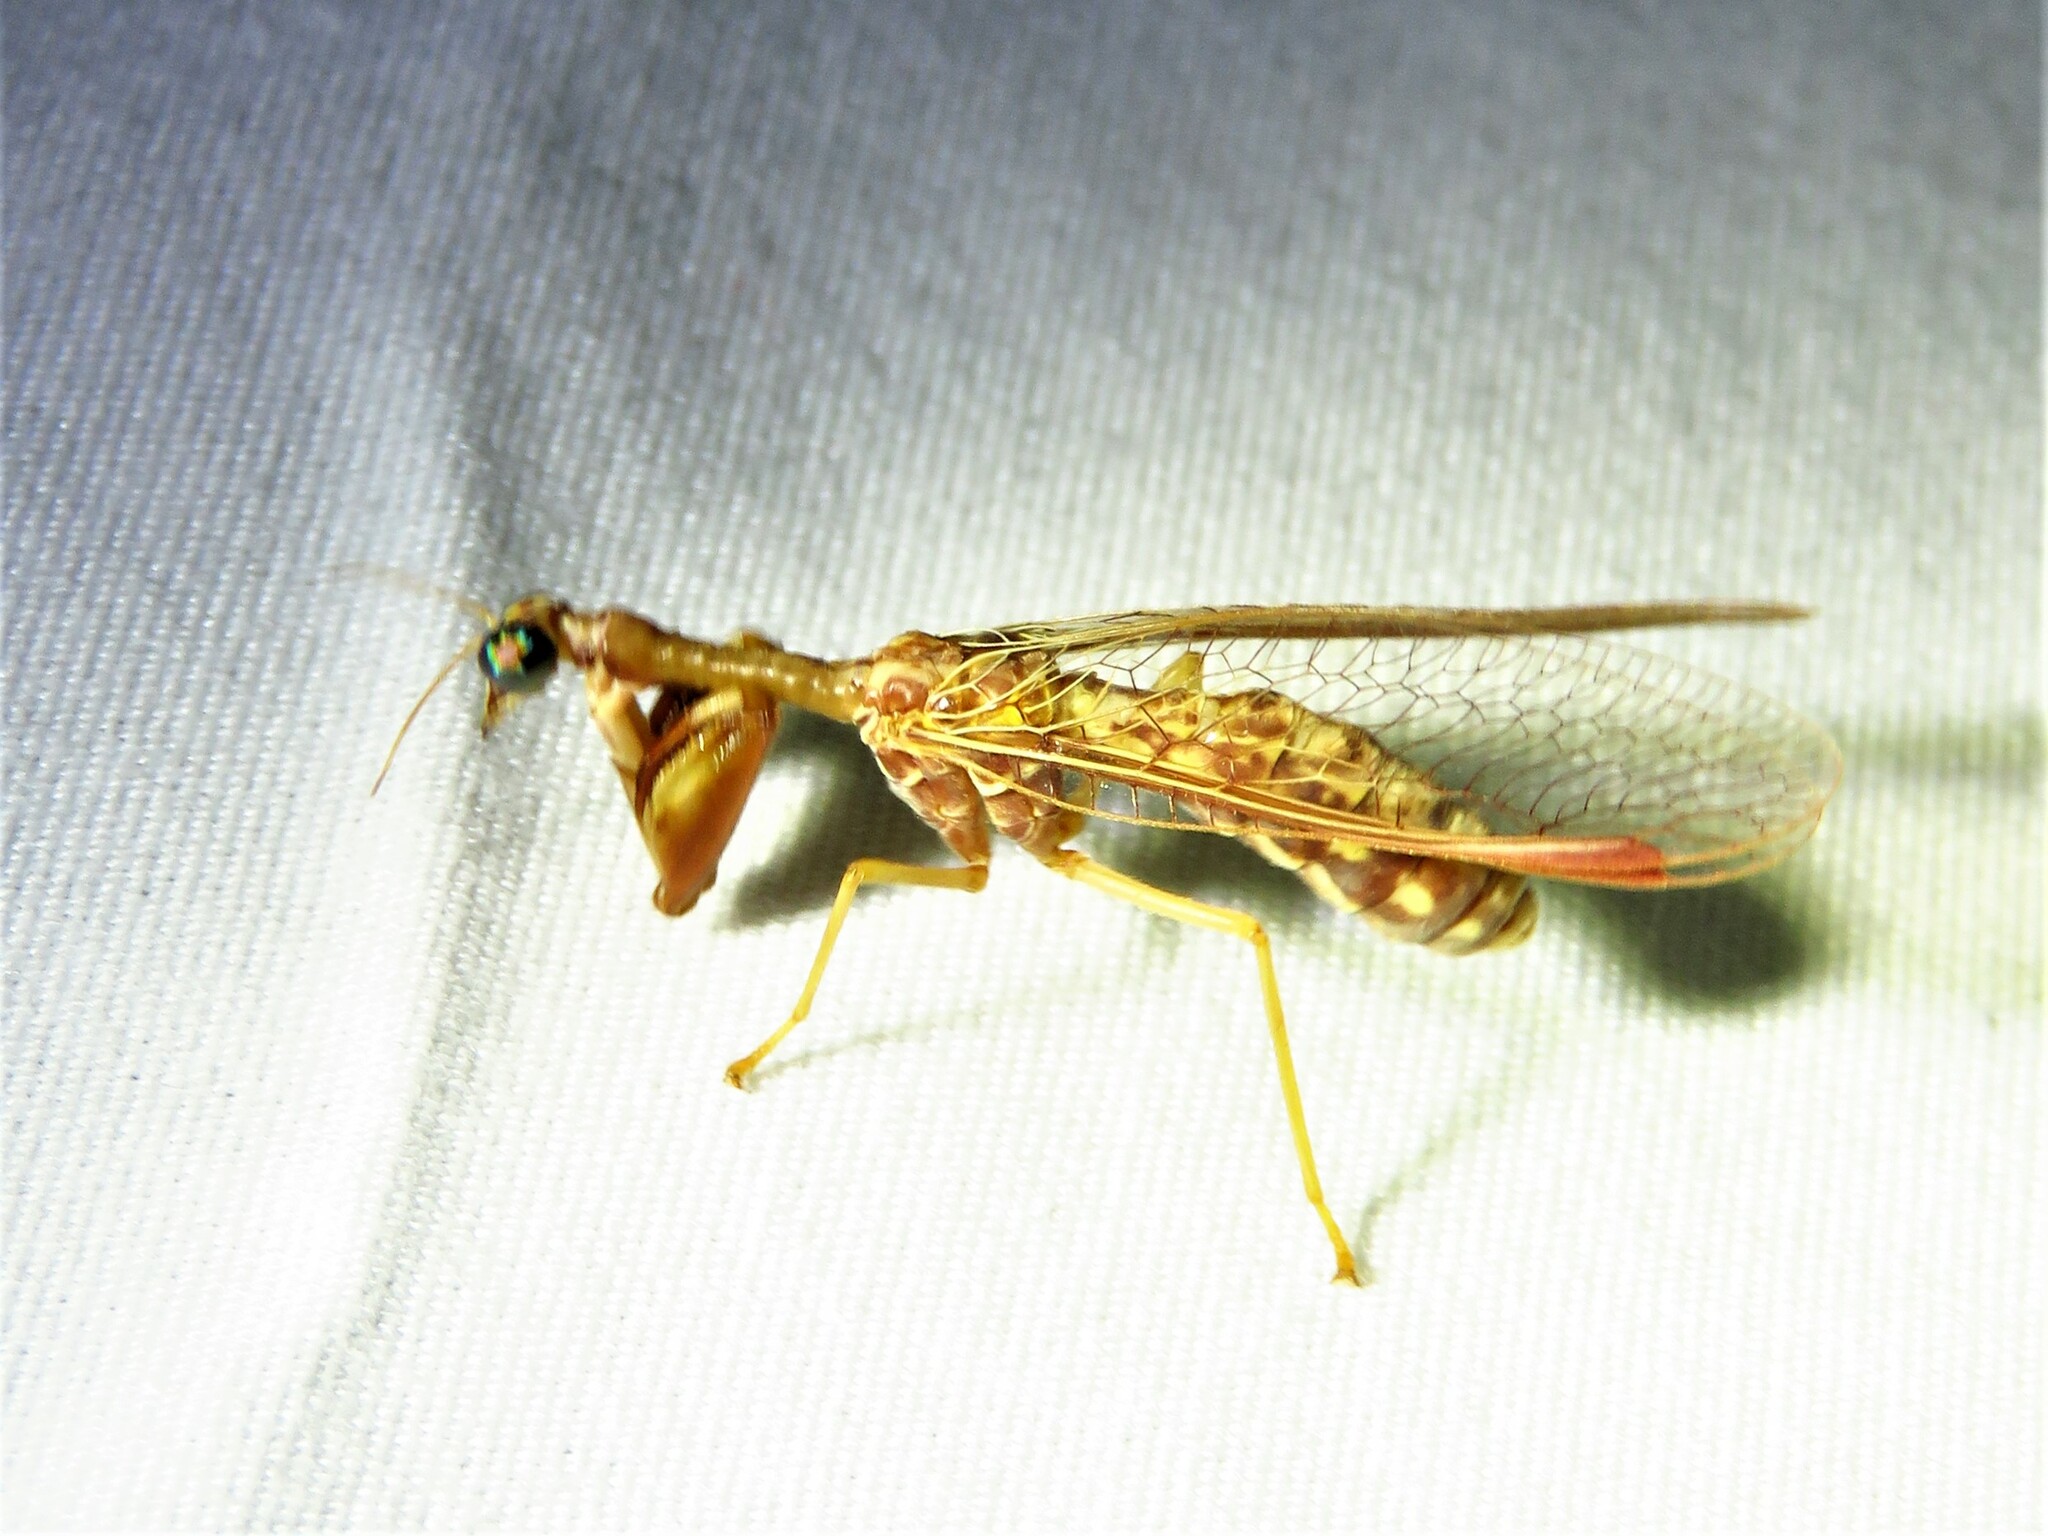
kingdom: Animalia
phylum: Arthropoda
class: Insecta
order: Neuroptera
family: Mantispidae
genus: Dicromantispa
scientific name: Dicromantispa sayi
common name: Say's mantidfly
